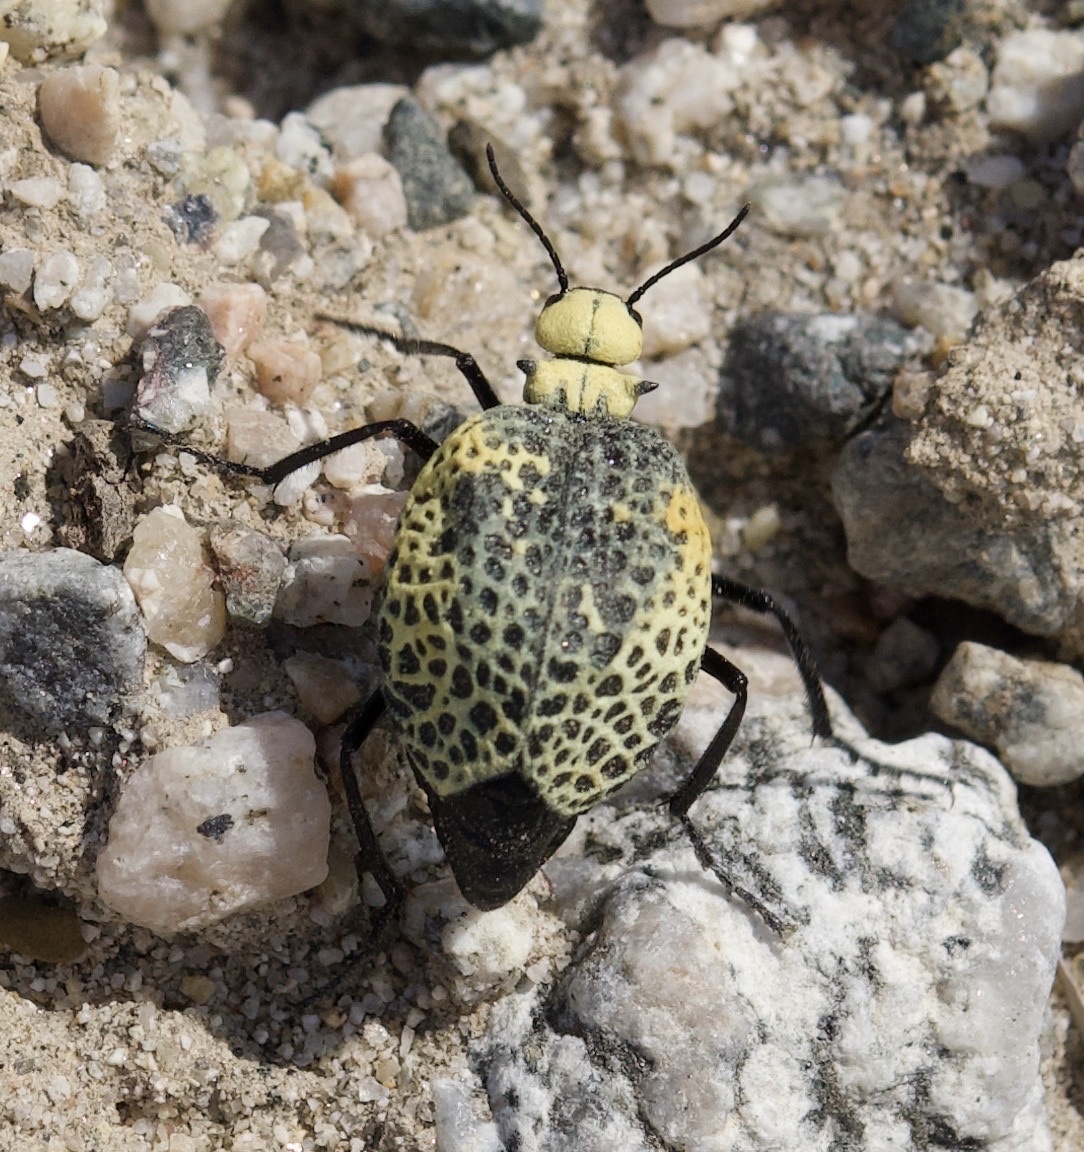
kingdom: Animalia
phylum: Arthropoda
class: Insecta
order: Coleoptera
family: Meloidae
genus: Cysteodemus
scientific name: Cysteodemus armatus
